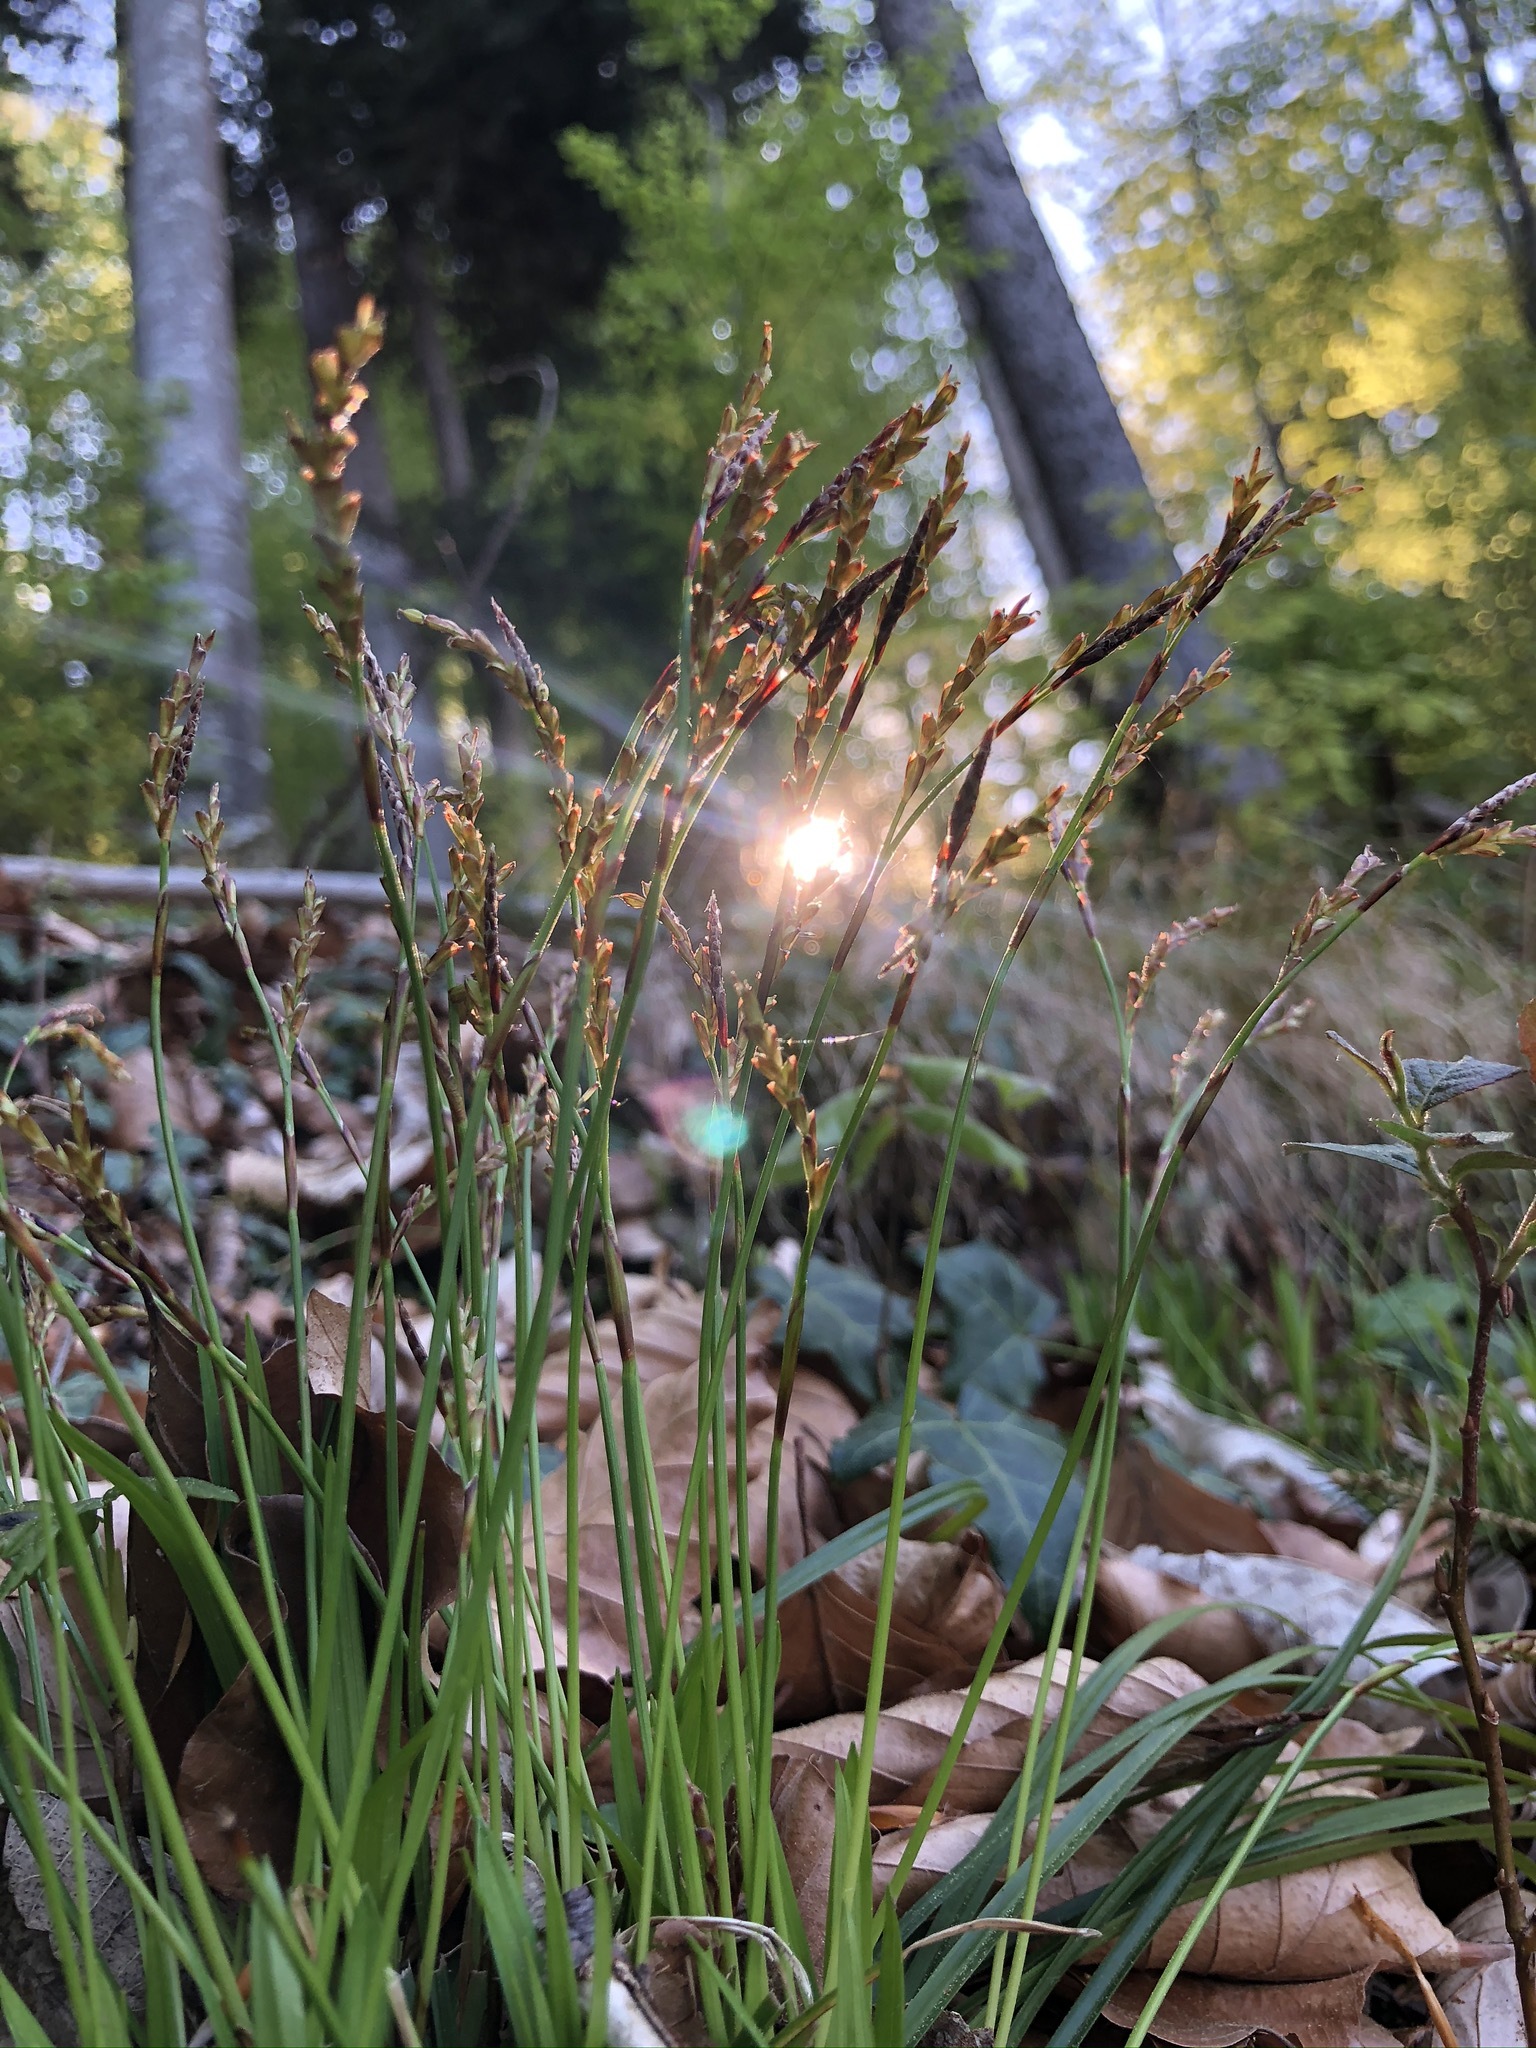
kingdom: Plantae
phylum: Tracheophyta
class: Liliopsida
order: Poales
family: Cyperaceae
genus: Carex
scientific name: Carex digitata
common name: Fingered sedge
